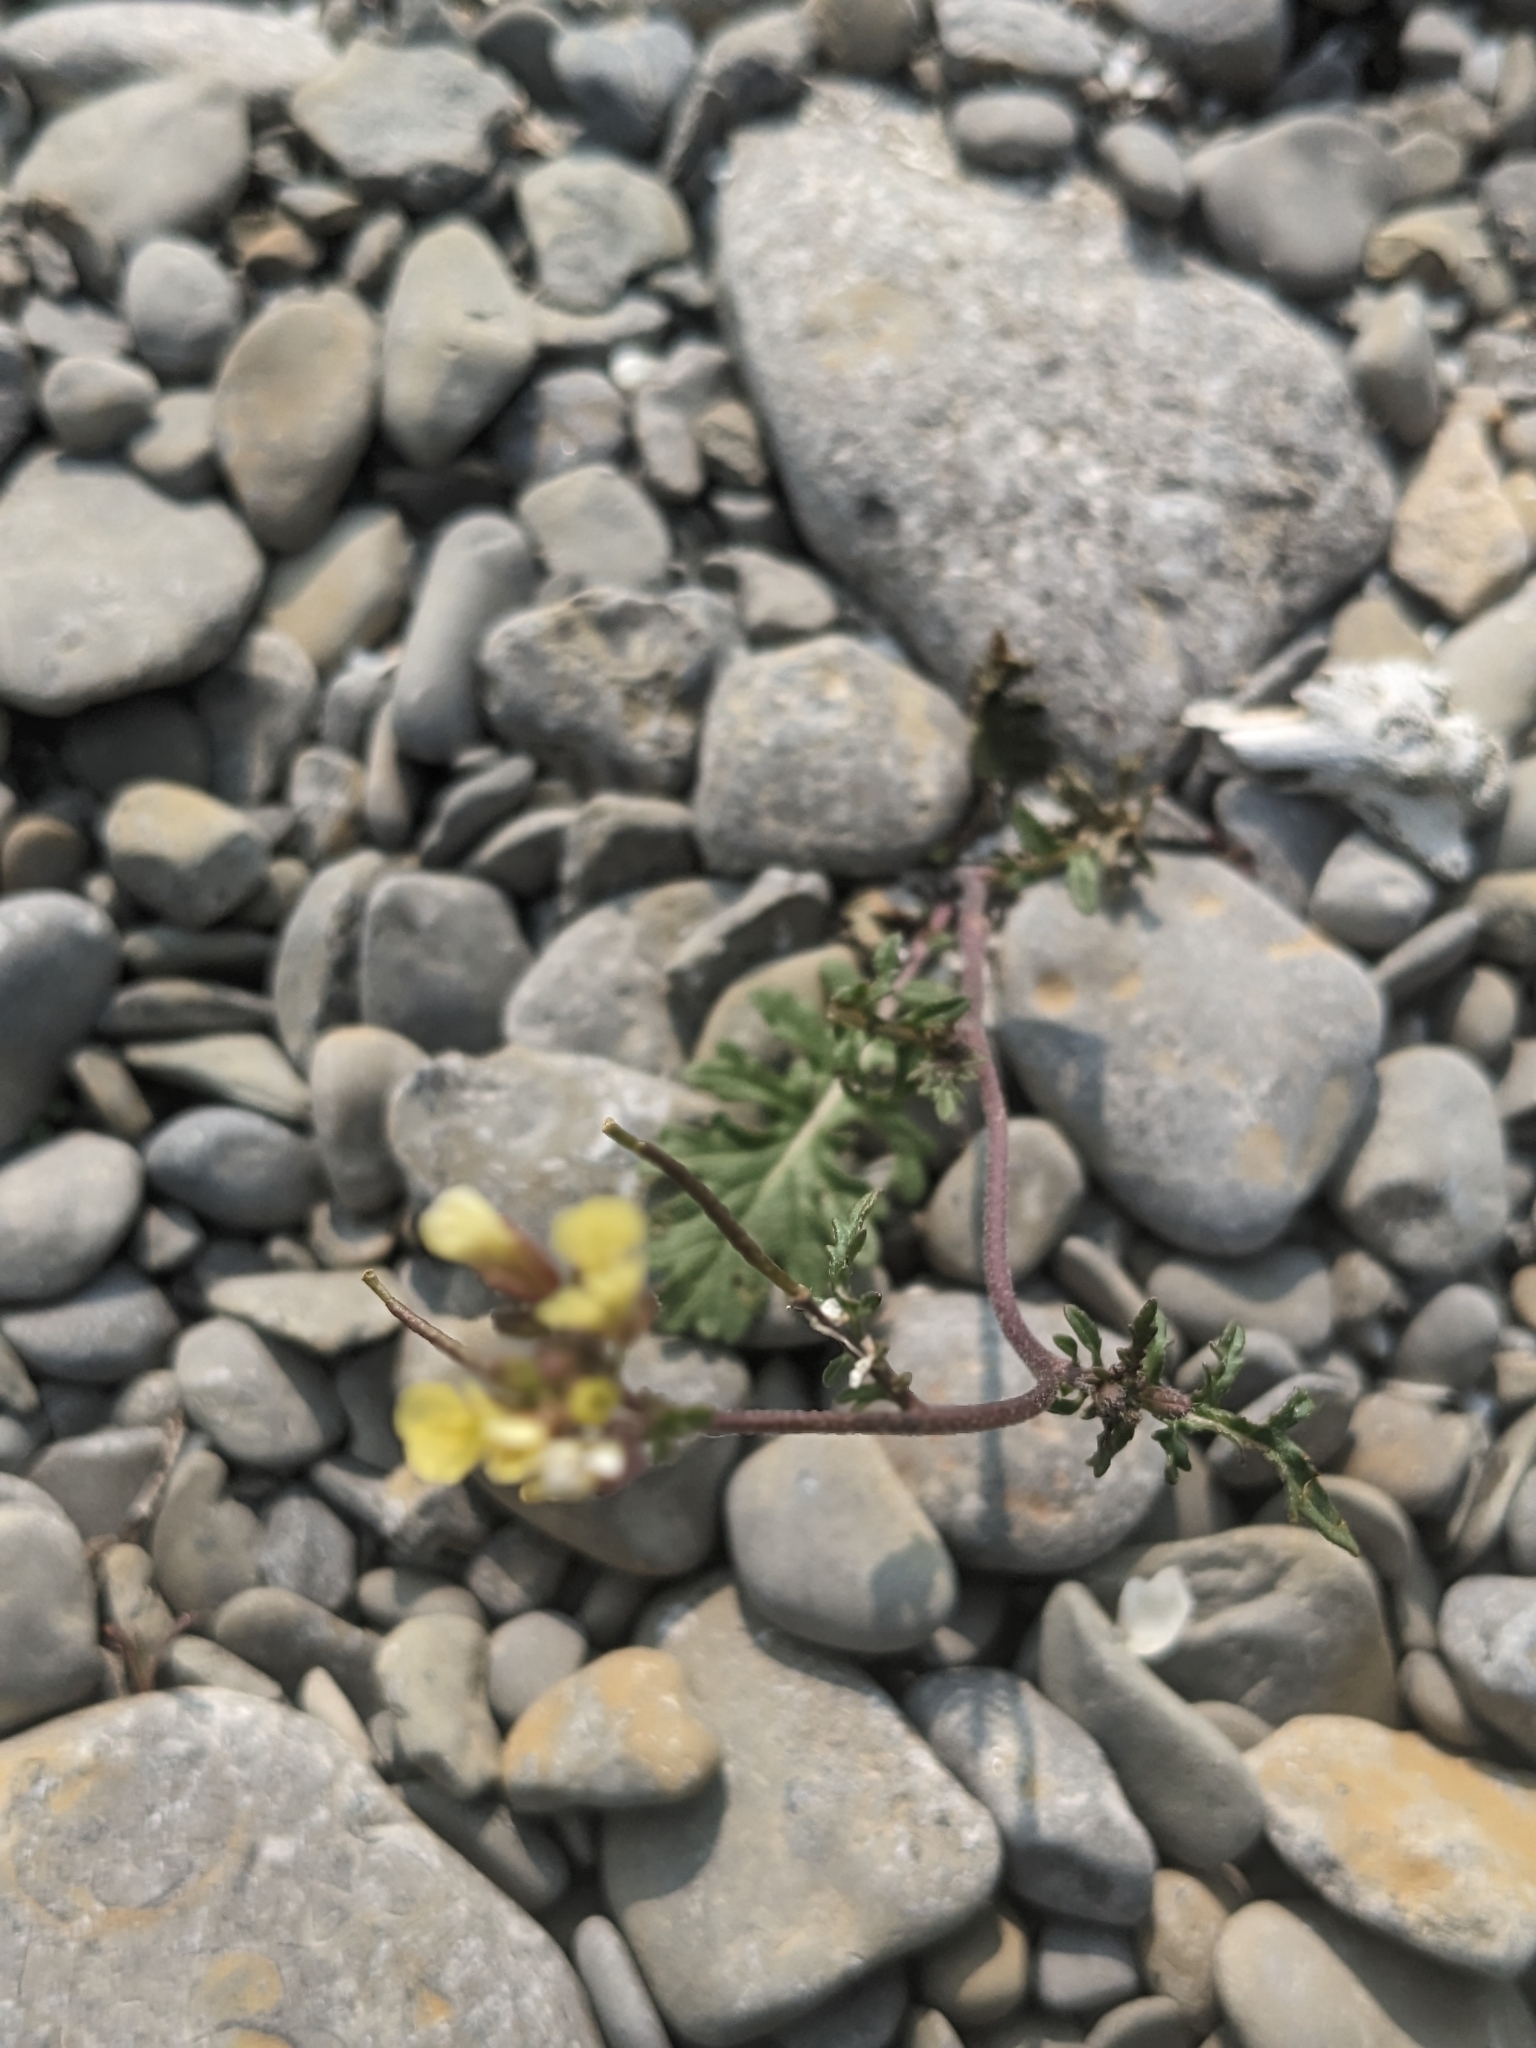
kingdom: Plantae
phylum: Tracheophyta
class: Magnoliopsida
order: Brassicales
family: Brassicaceae
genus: Erucastrum
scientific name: Erucastrum gallicum
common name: Hairy rocket
